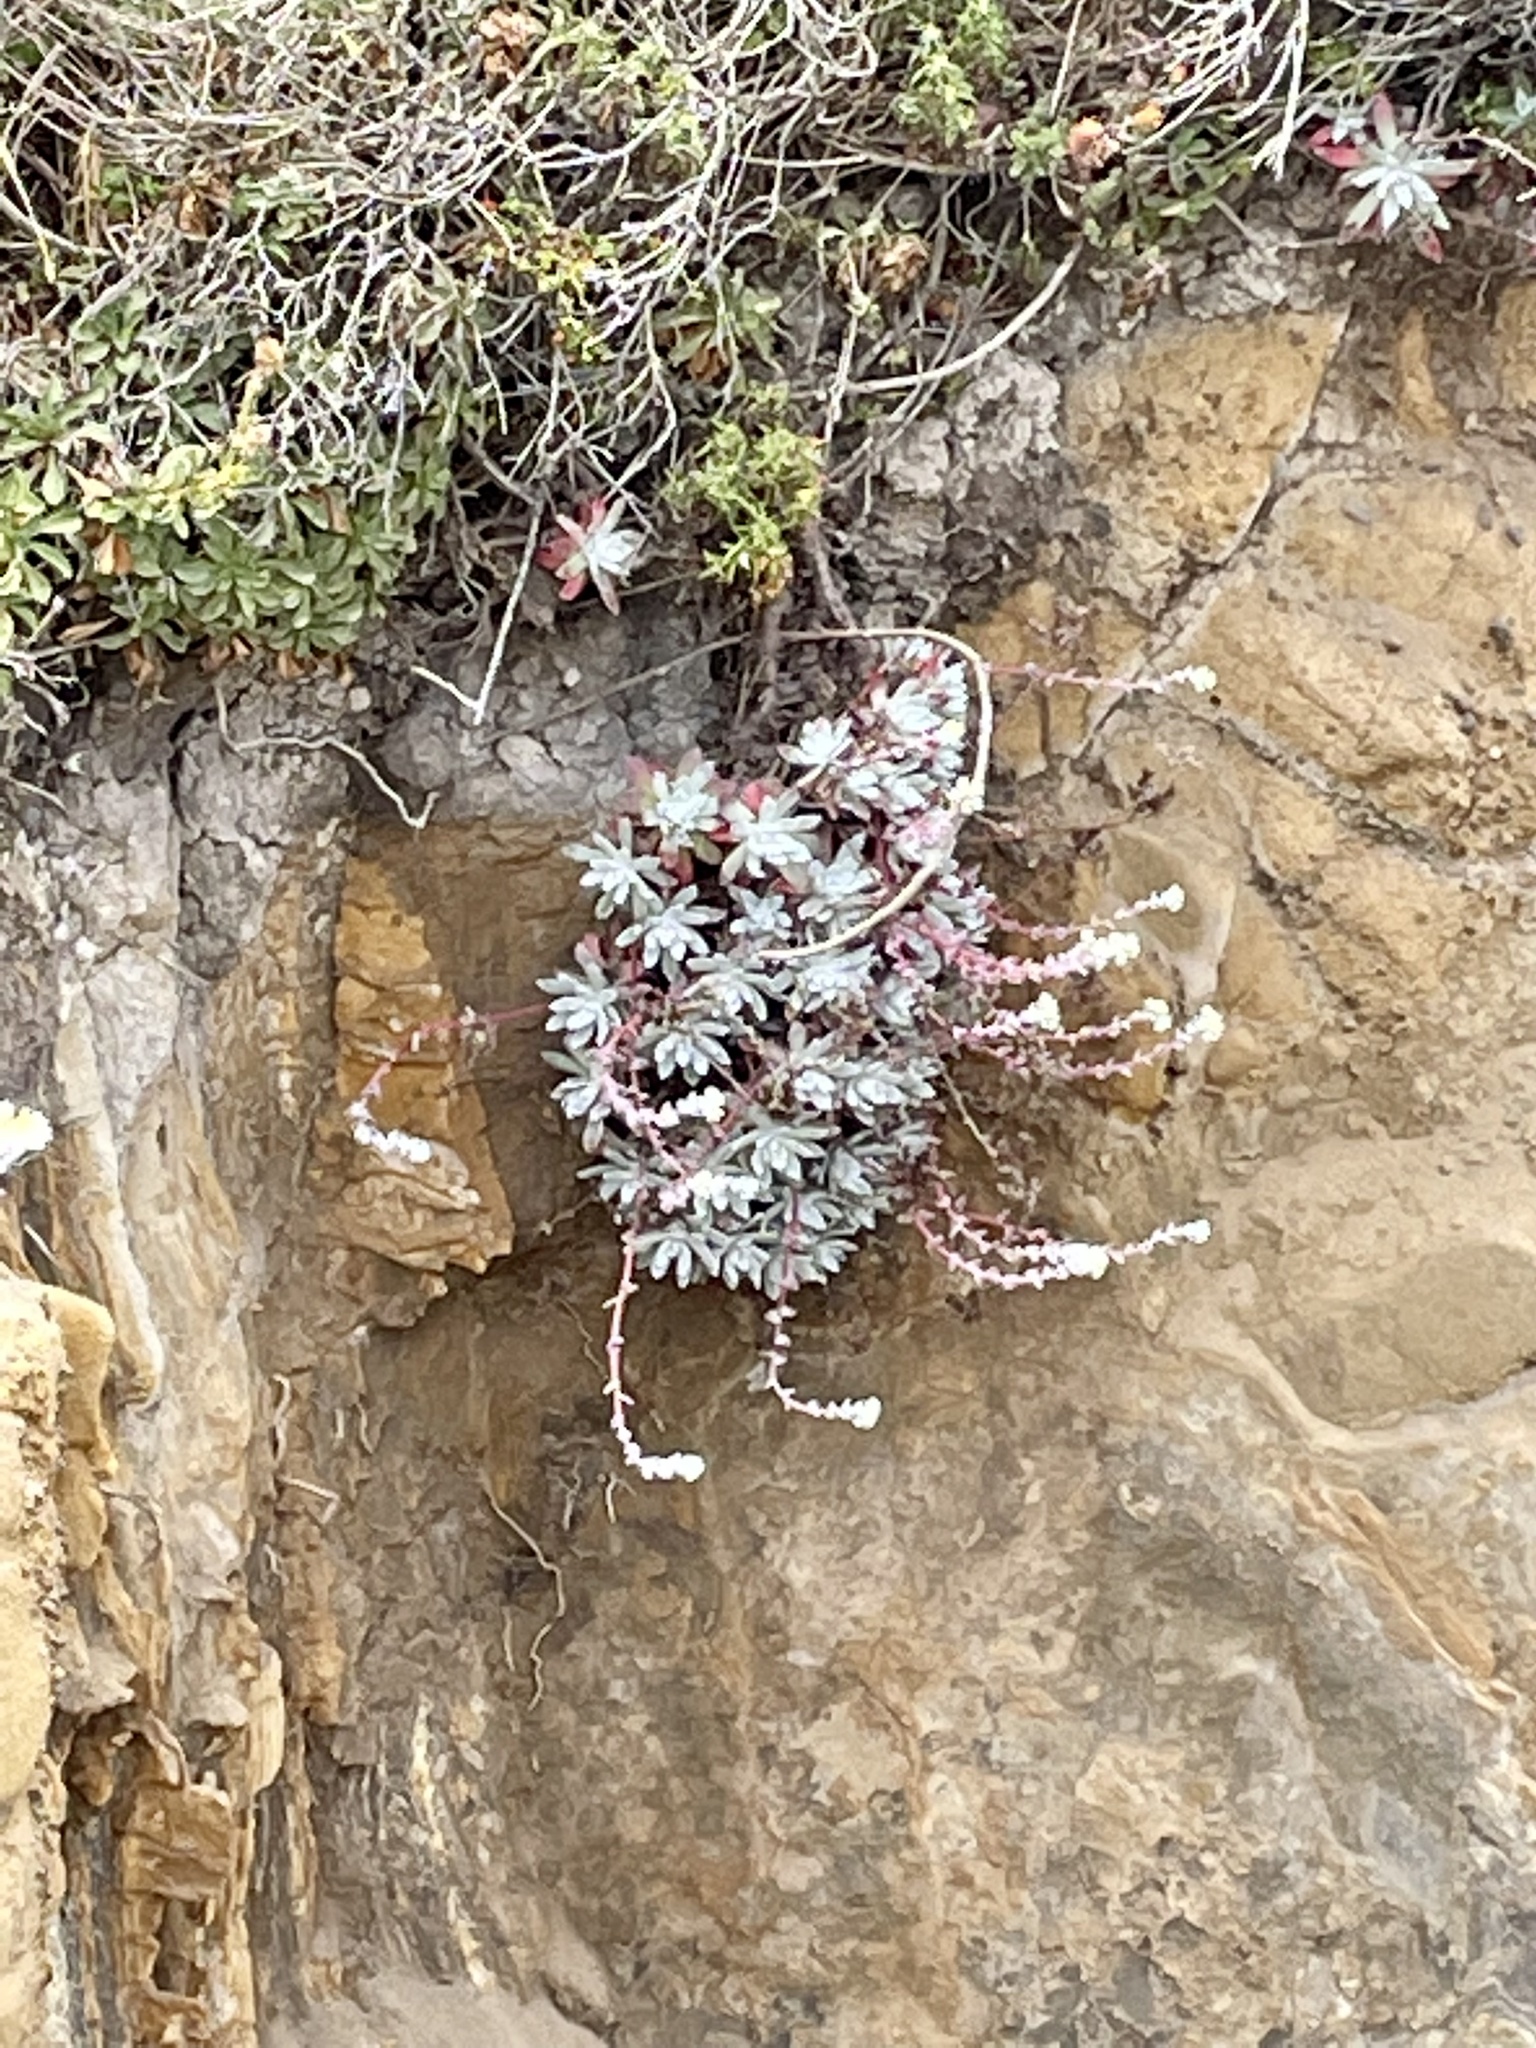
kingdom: Plantae
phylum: Tracheophyta
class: Magnoliopsida
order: Saxifragales
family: Crassulaceae
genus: Dudleya
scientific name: Dudleya farinosa
